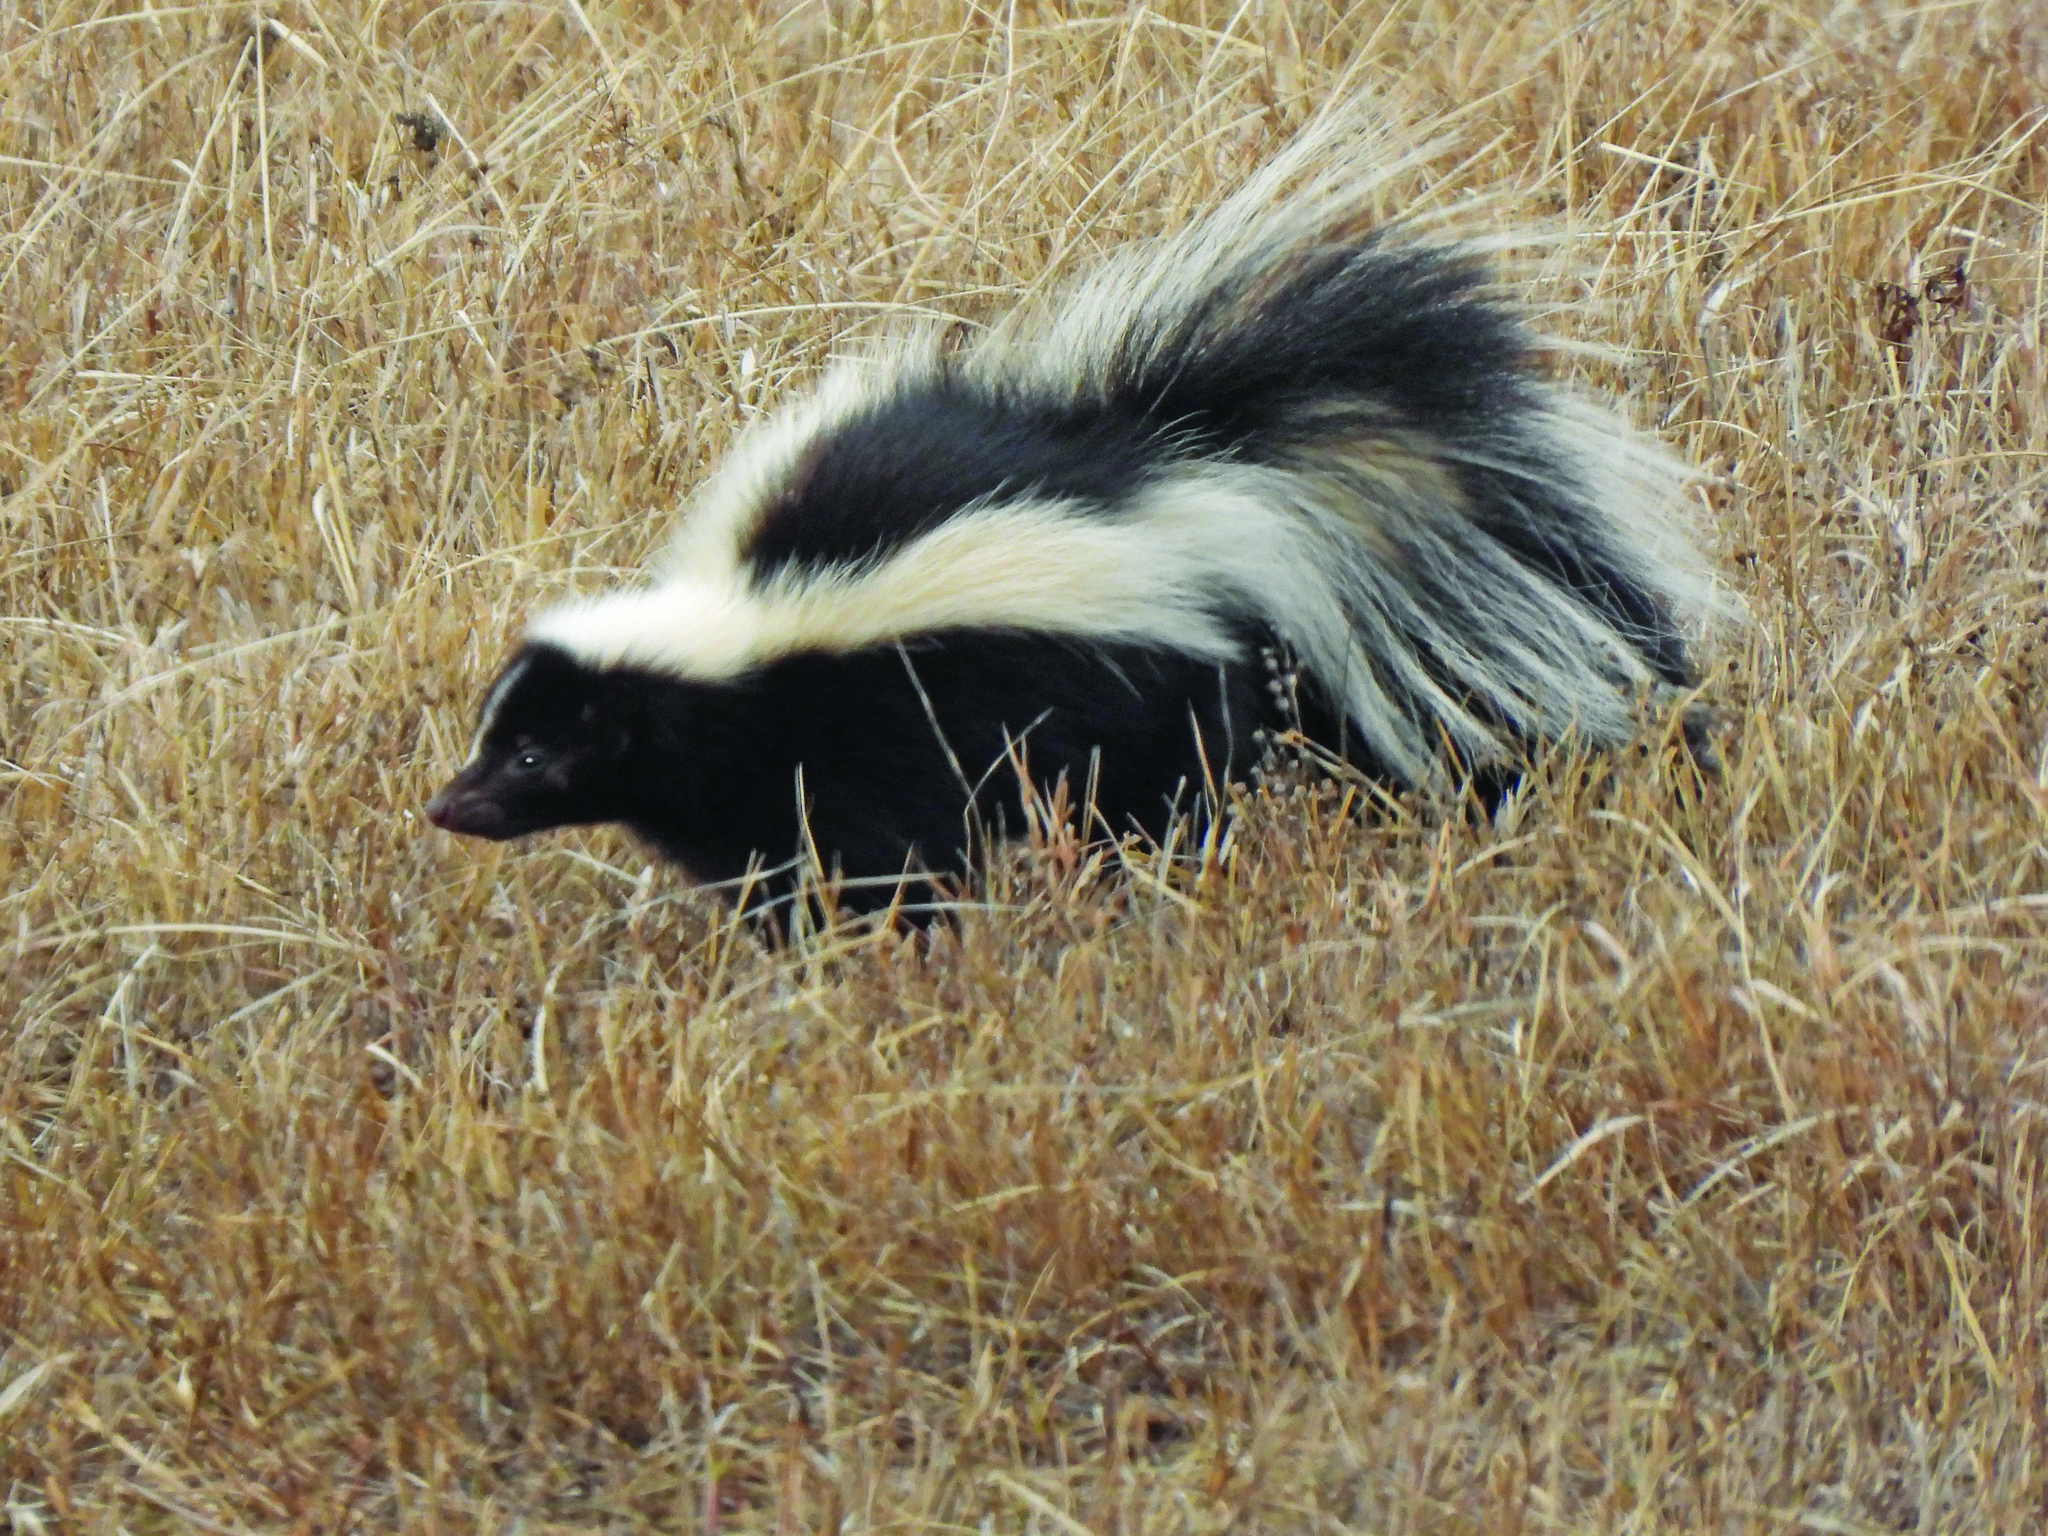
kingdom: Animalia
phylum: Chordata
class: Mammalia
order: Carnivora
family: Mephitidae
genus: Mephitis
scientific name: Mephitis mephitis
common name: Striped skunk
